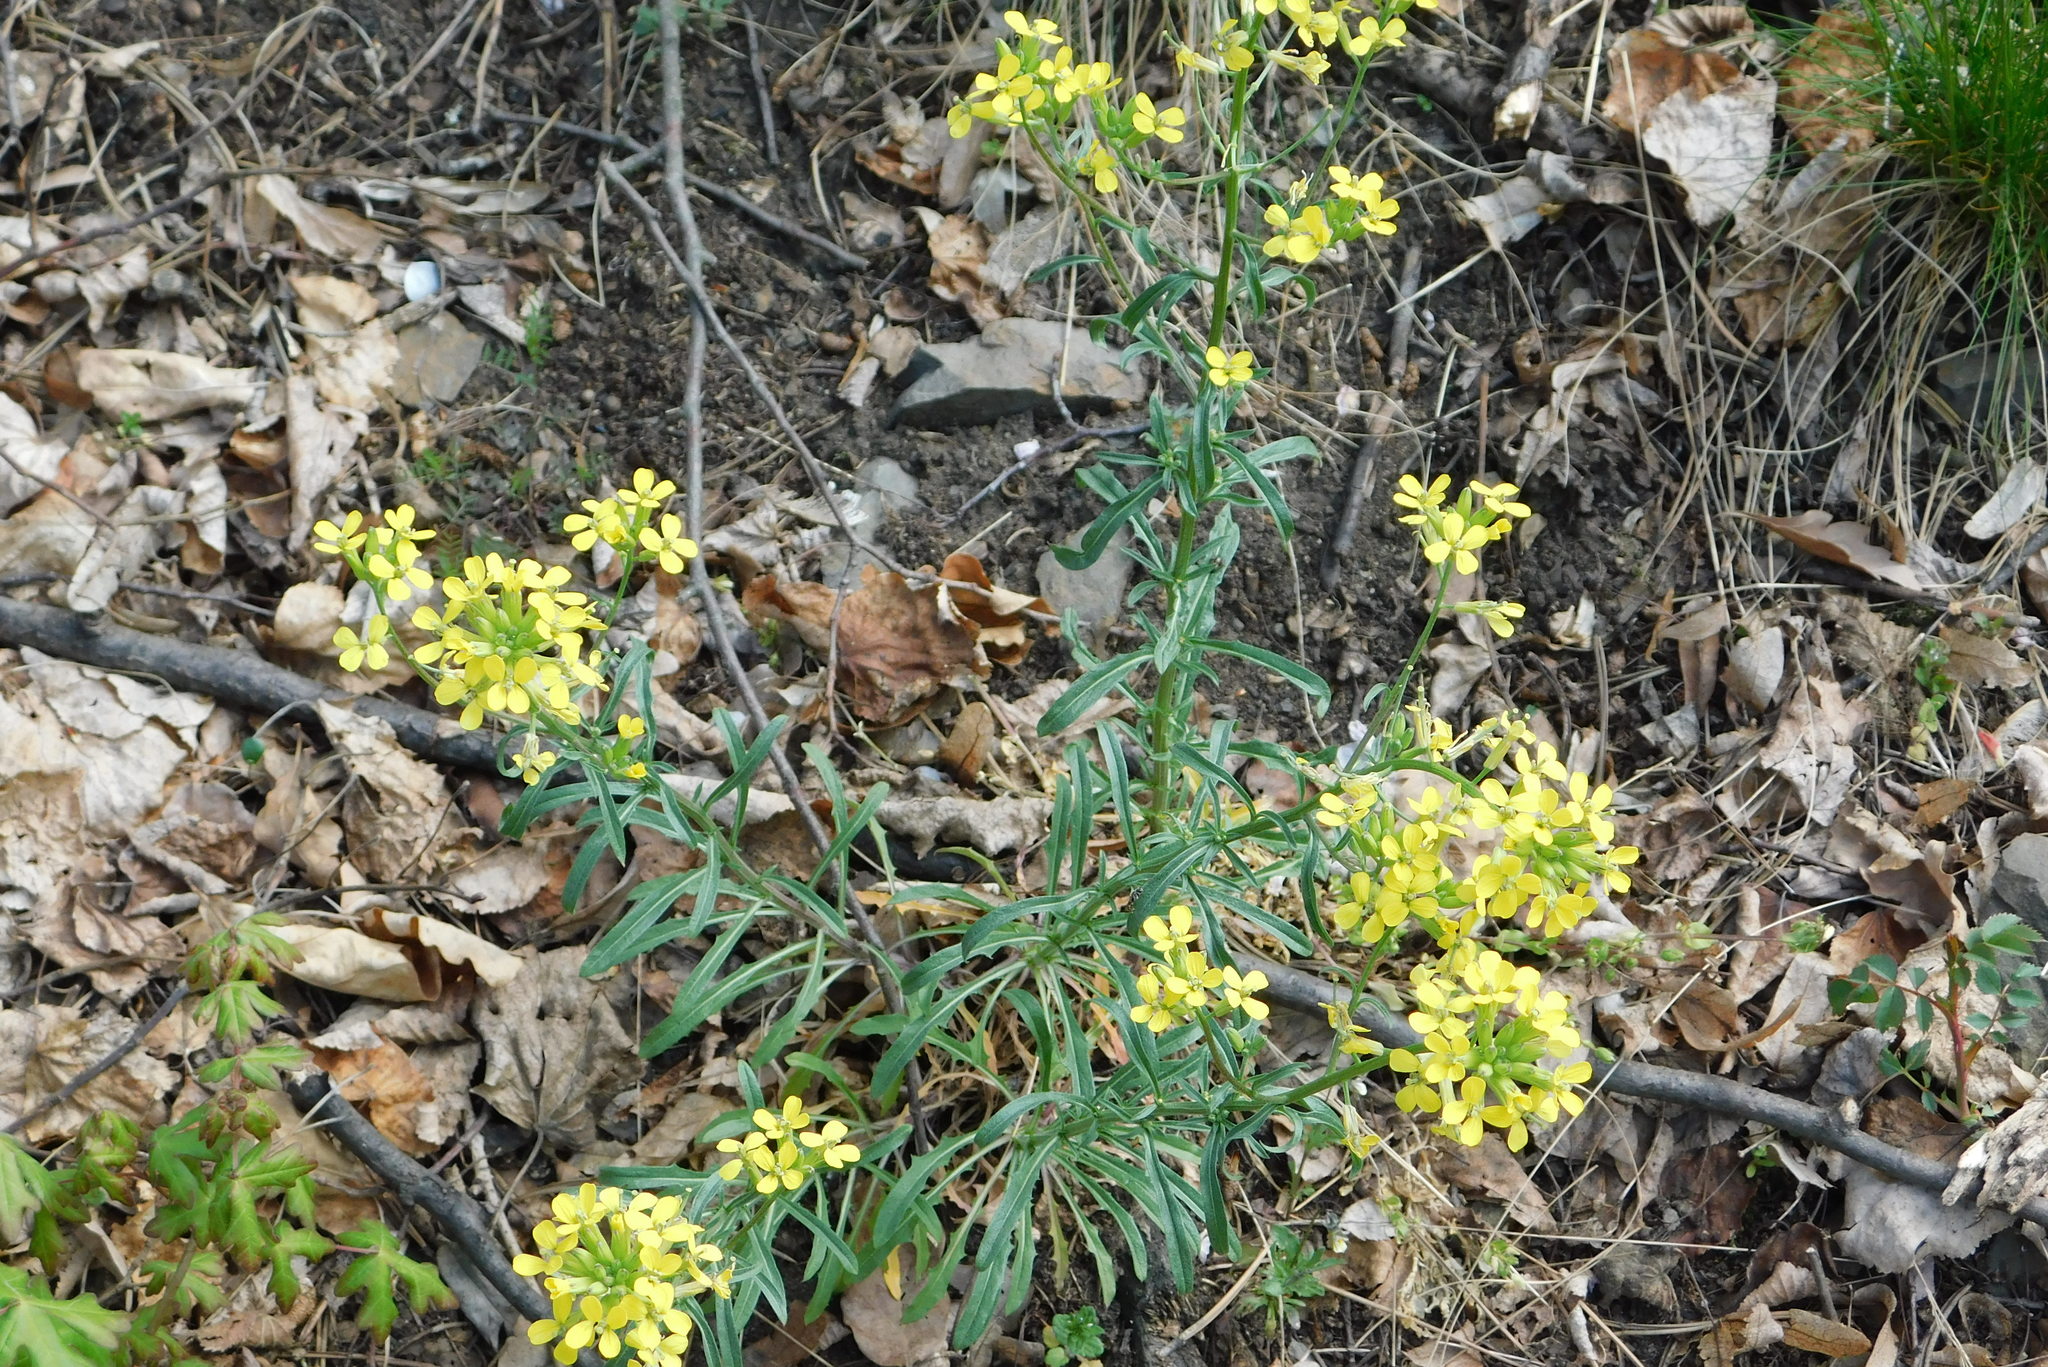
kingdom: Plantae
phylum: Tracheophyta
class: Magnoliopsida
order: Brassicales
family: Brassicaceae
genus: Erysimum
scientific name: Erysimum crepidifolium
